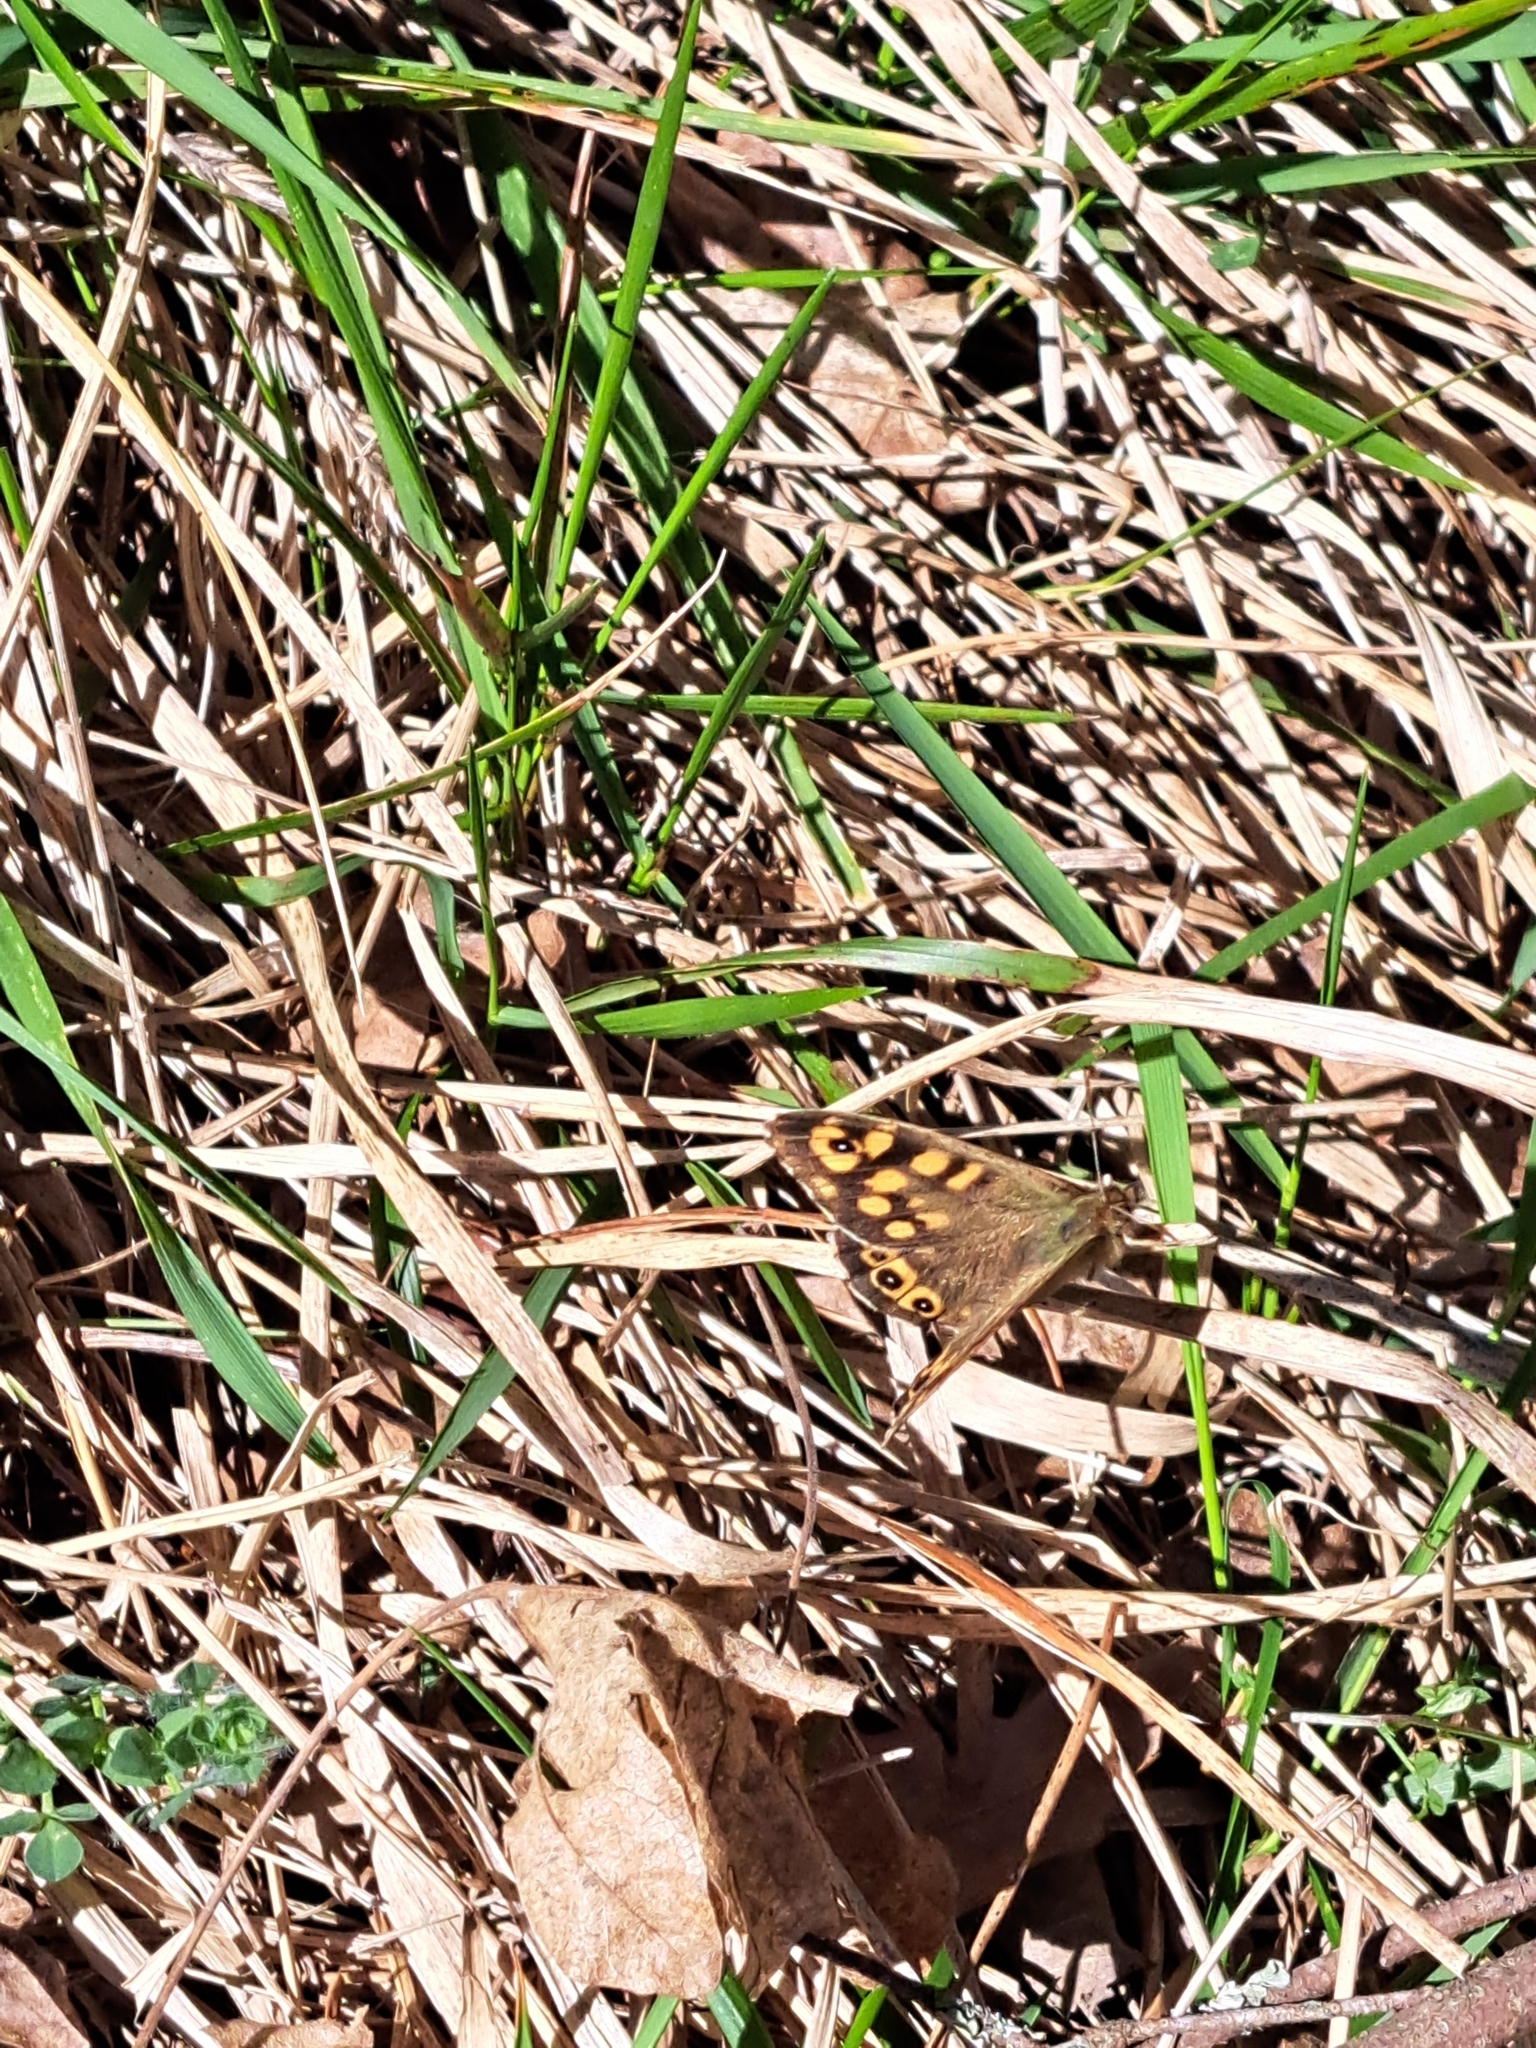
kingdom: Animalia
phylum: Arthropoda
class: Insecta
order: Lepidoptera
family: Nymphalidae
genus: Pararge
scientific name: Pararge aegeria
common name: Speckled wood
